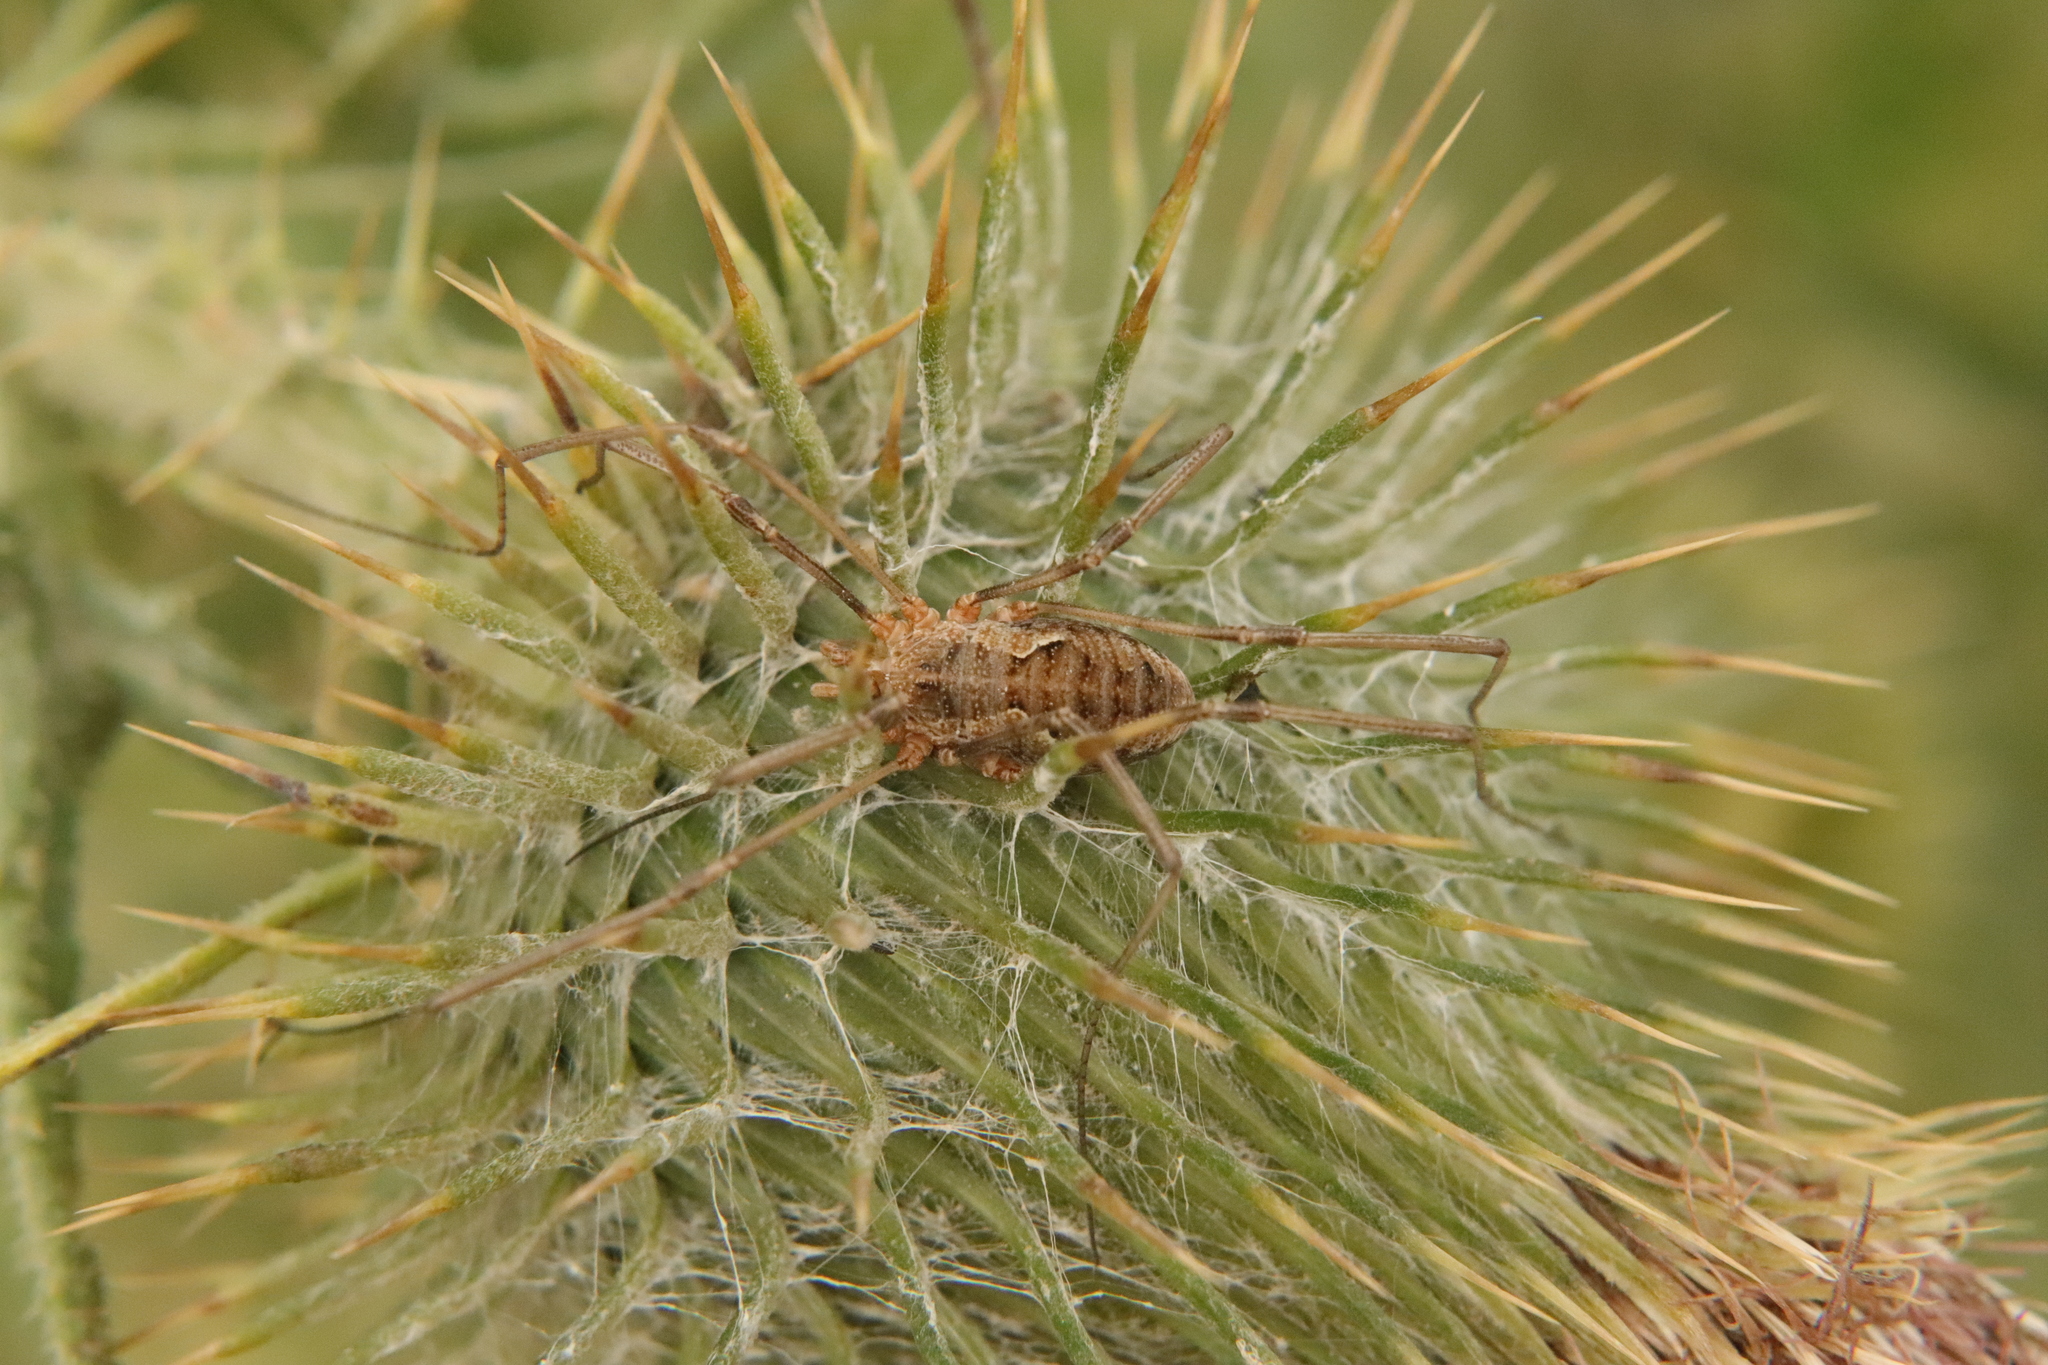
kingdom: Animalia
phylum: Arthropoda
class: Arachnida
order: Opiliones
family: Phalangiidae
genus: Phalangium
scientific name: Phalangium opilio
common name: Daddy longleg
